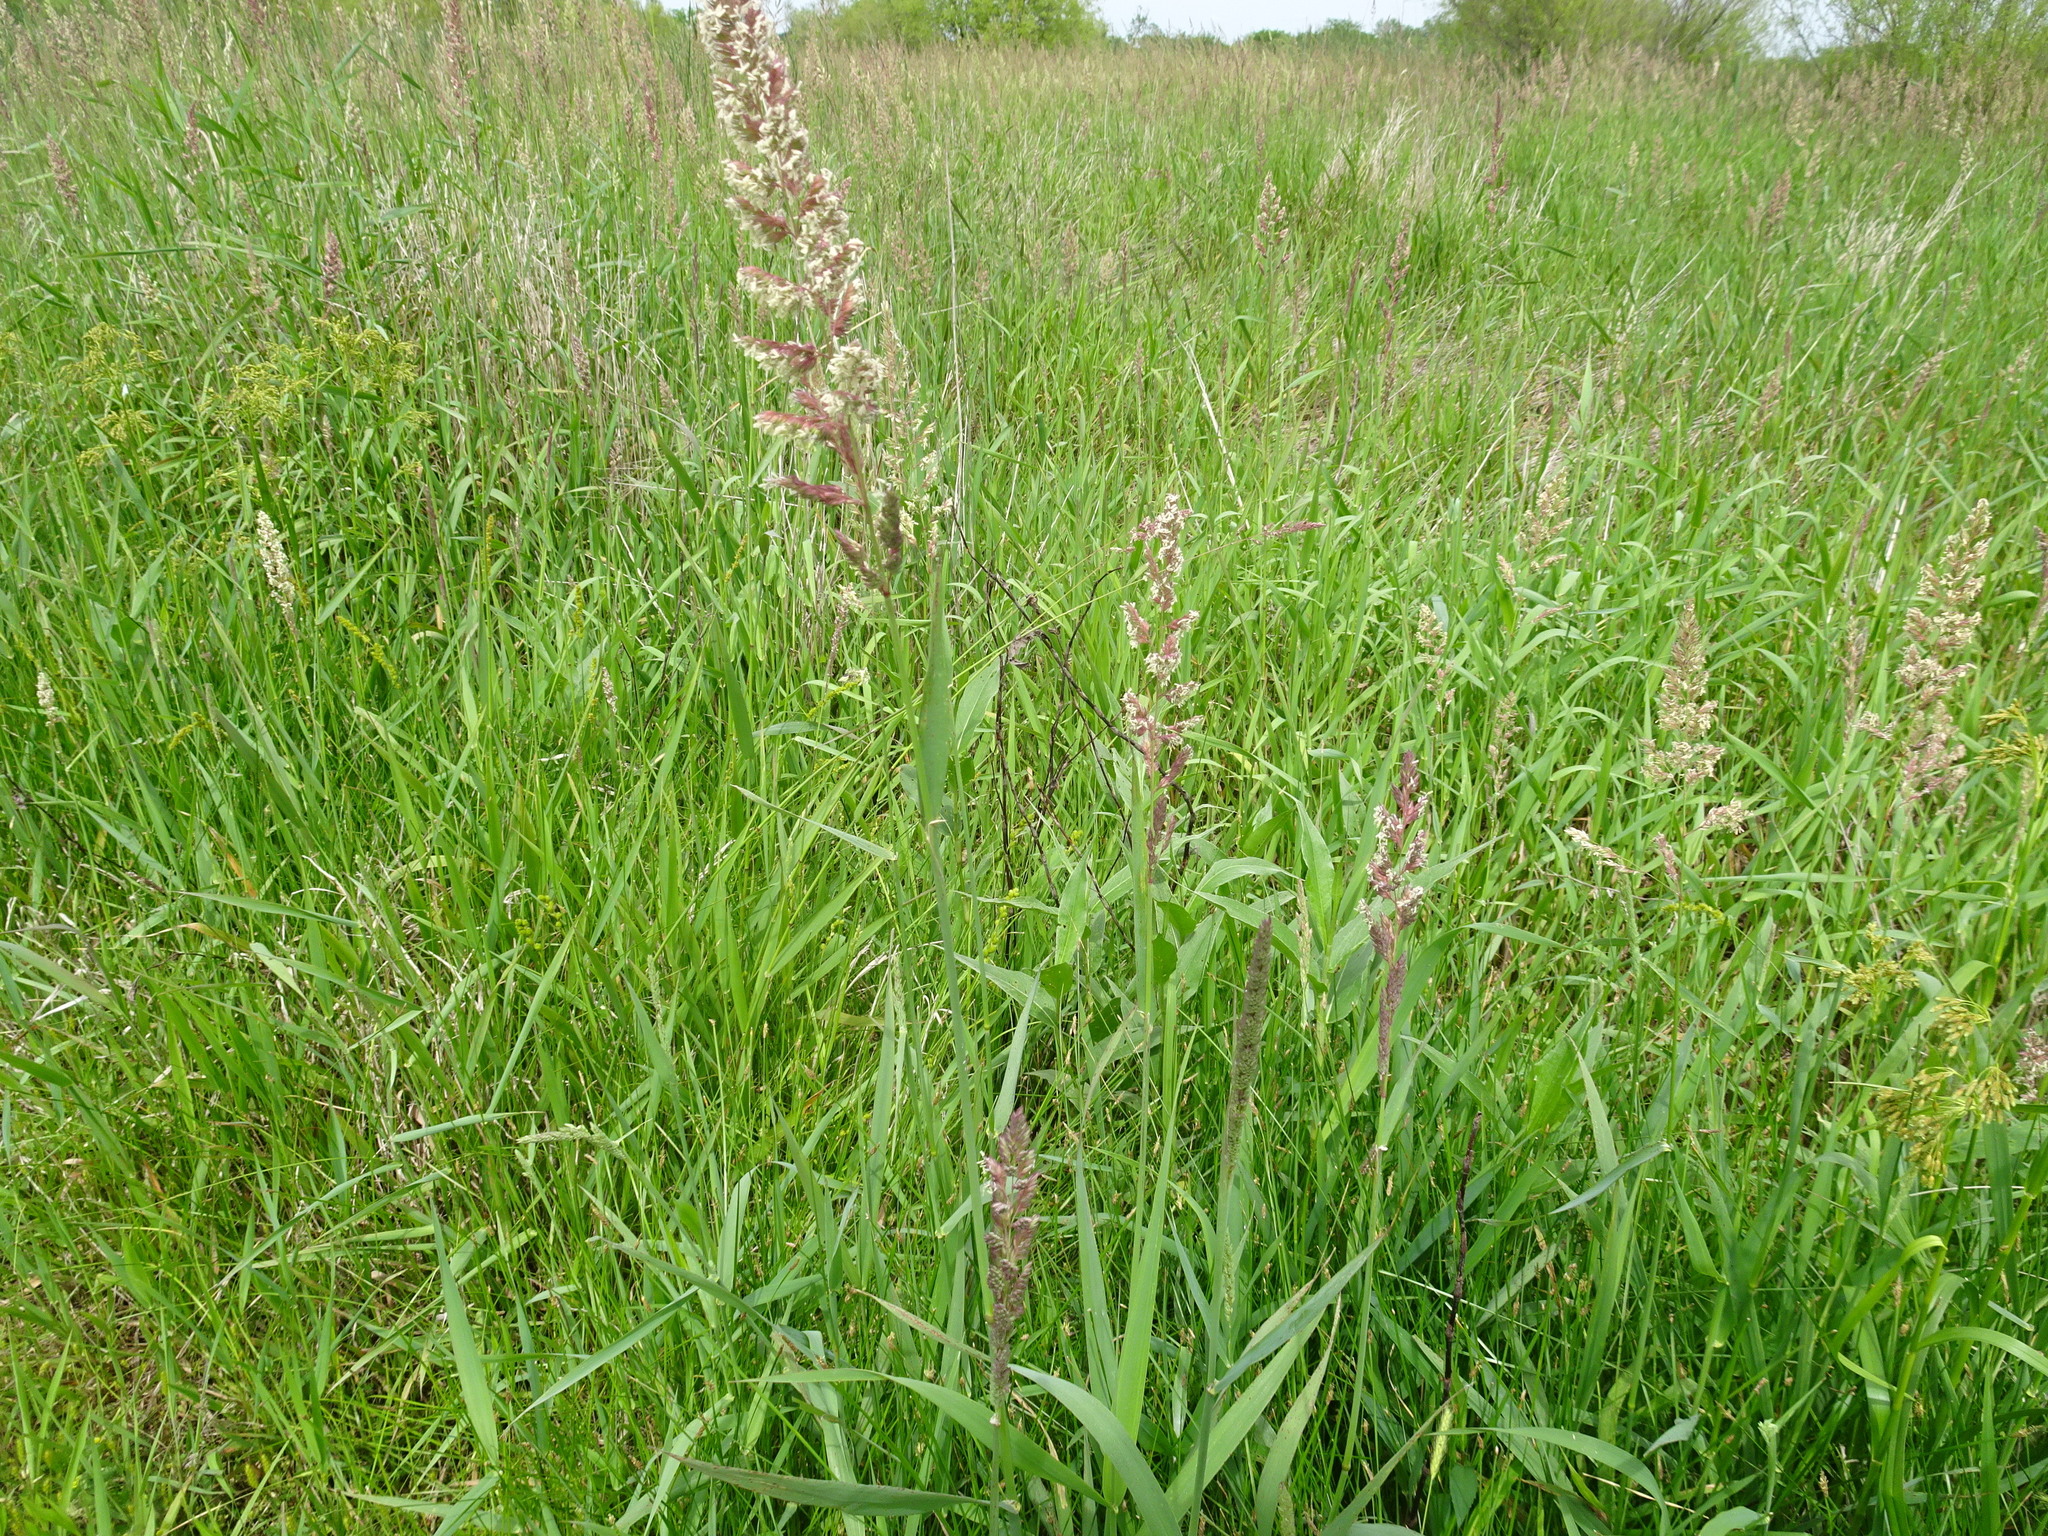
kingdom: Plantae
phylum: Tracheophyta
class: Liliopsida
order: Poales
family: Poaceae
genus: Phalaris
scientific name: Phalaris arundinacea
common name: Reed canary-grass
